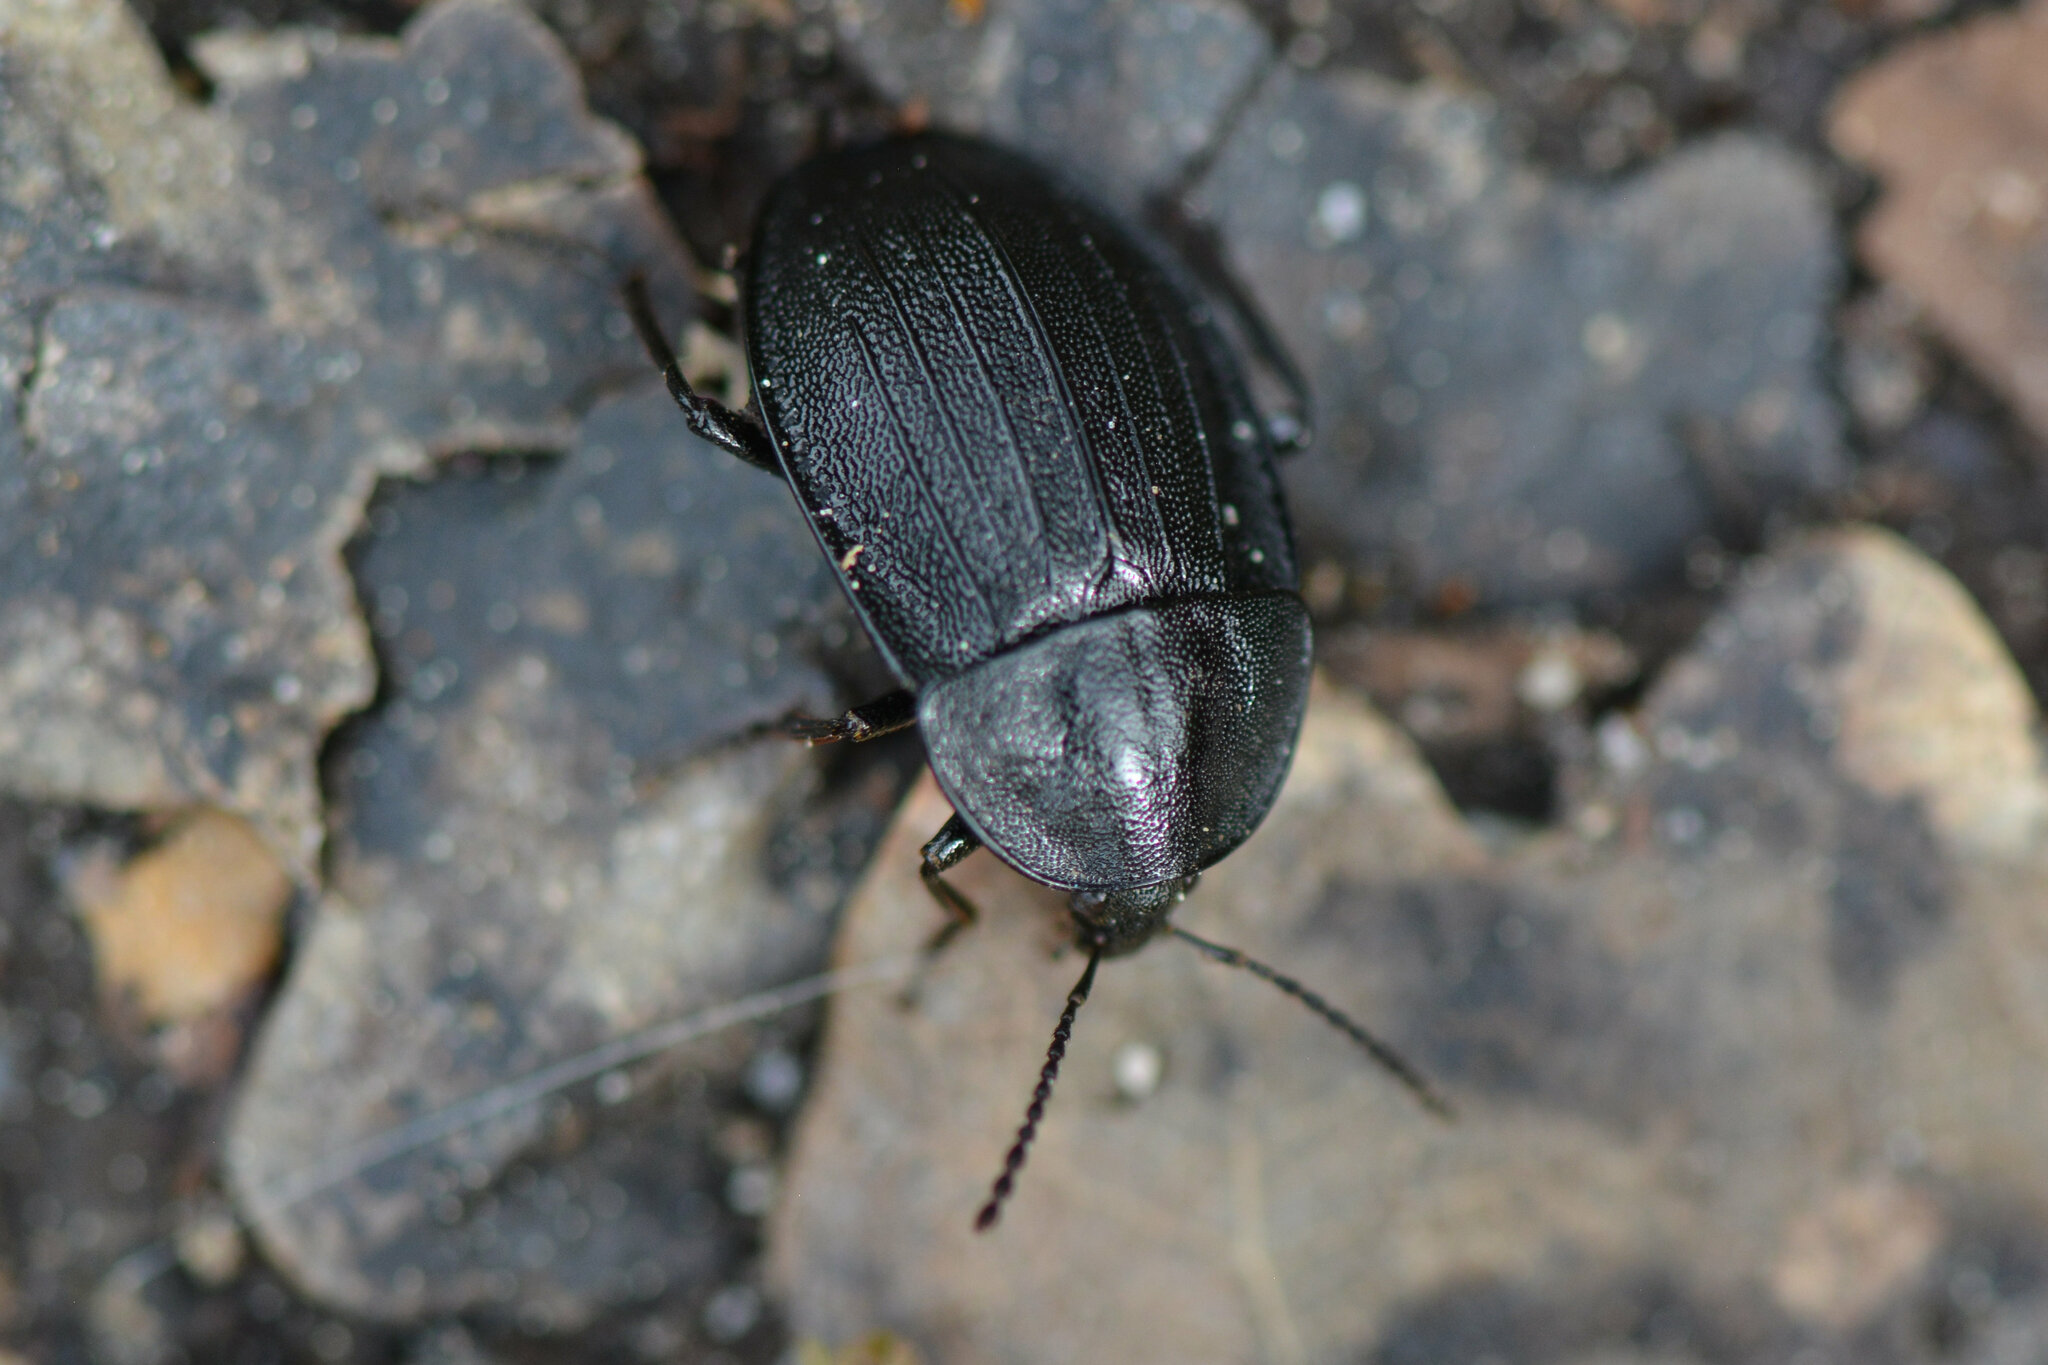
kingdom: Animalia
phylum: Arthropoda
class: Insecta
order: Coleoptera
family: Staphylinidae
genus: Silpha
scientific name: Silpha atrata
